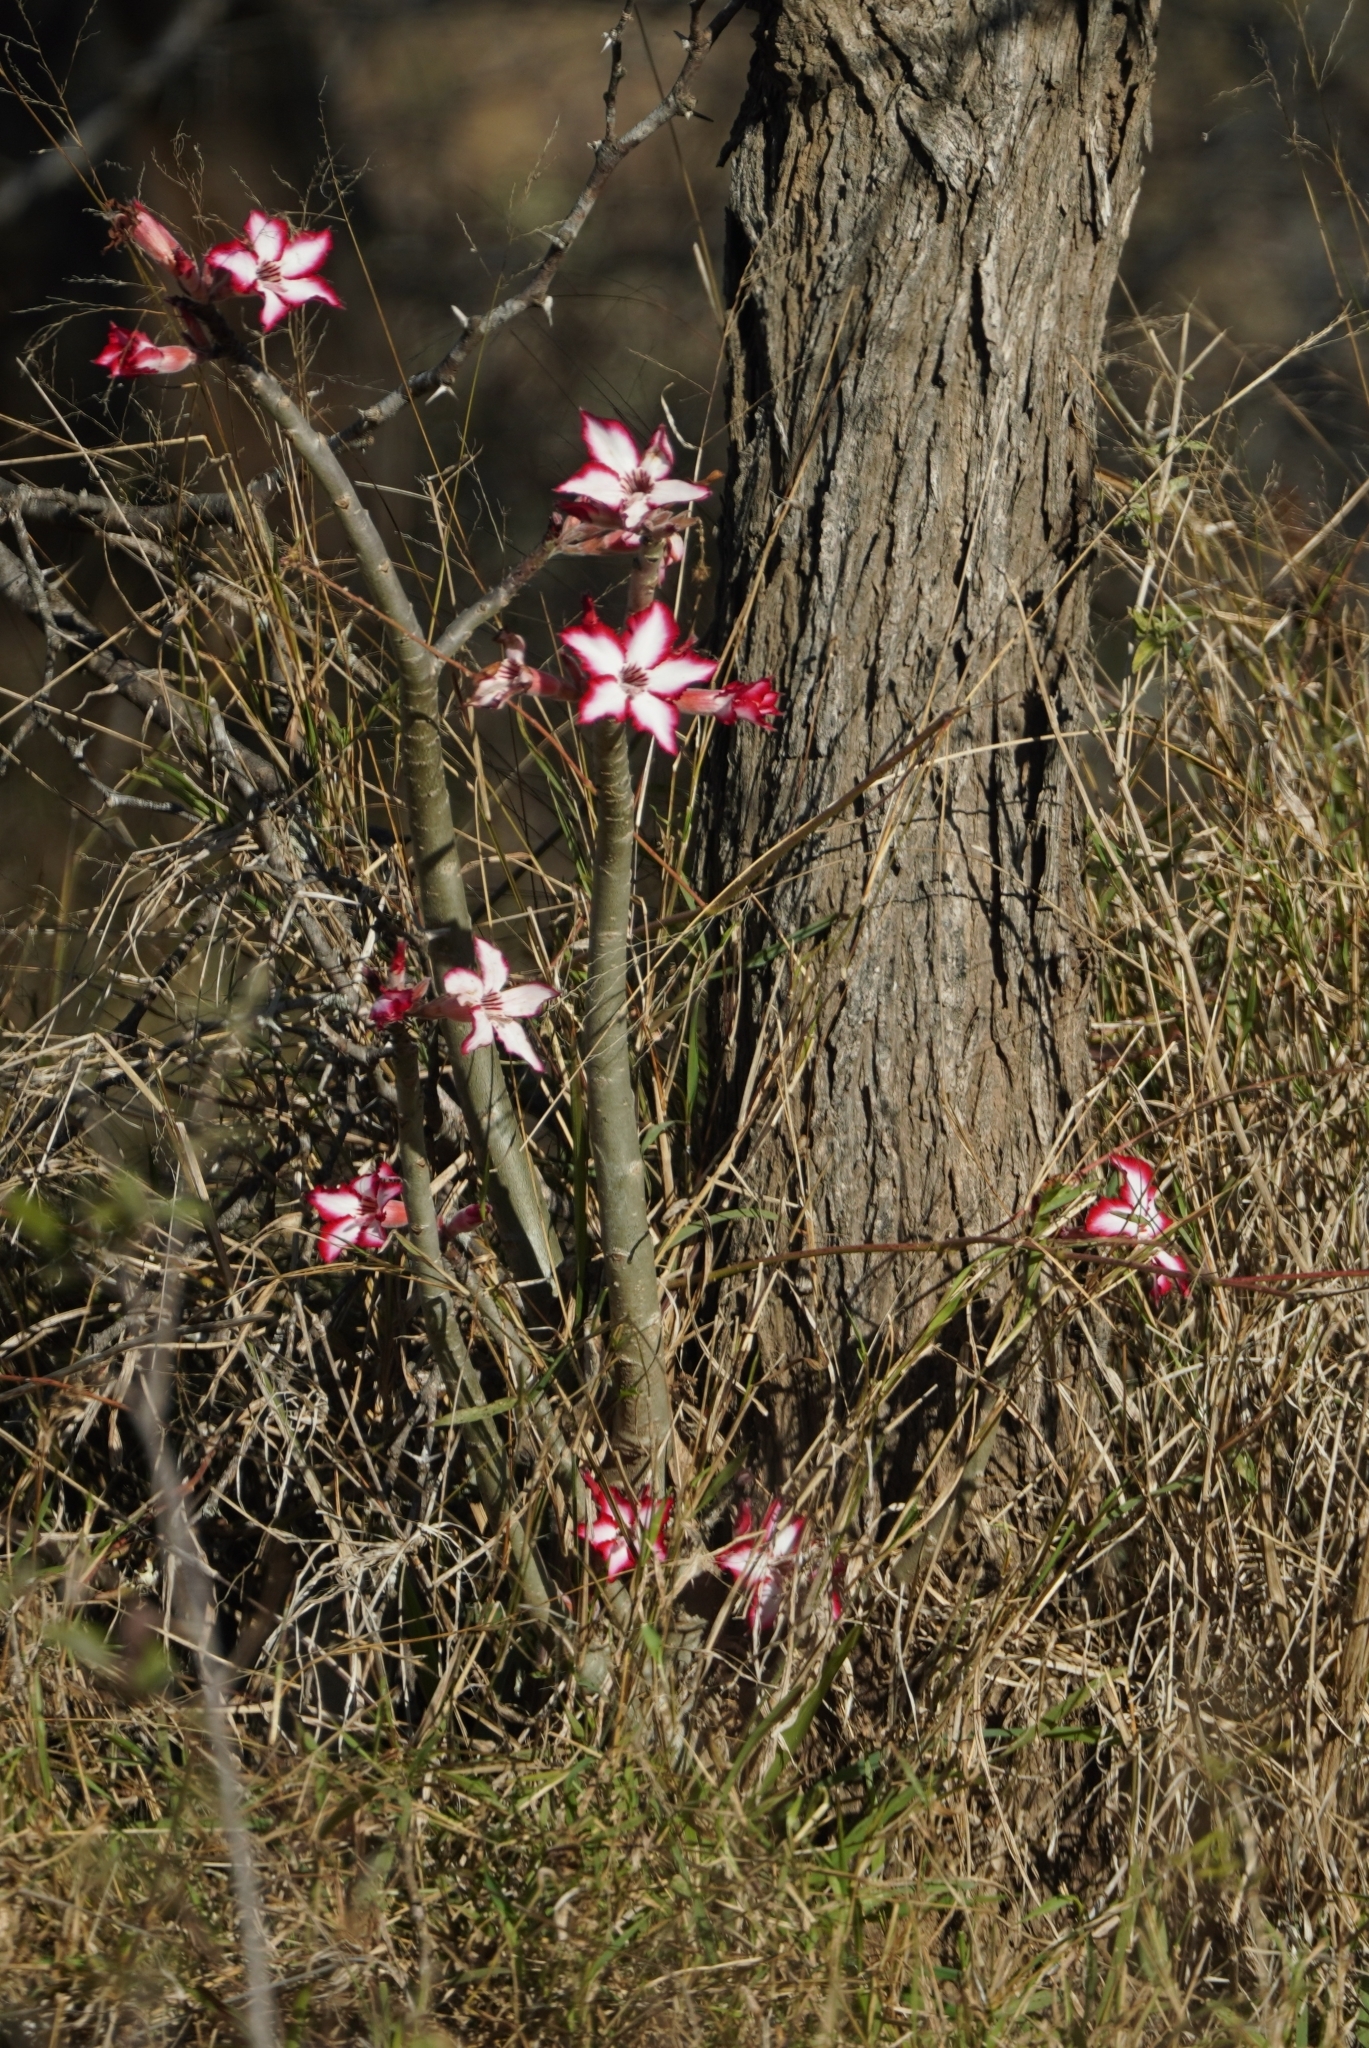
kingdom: Plantae
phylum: Tracheophyta
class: Magnoliopsida
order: Gentianales
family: Apocynaceae
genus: Adenium
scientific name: Adenium obesum
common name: Desert-rose
